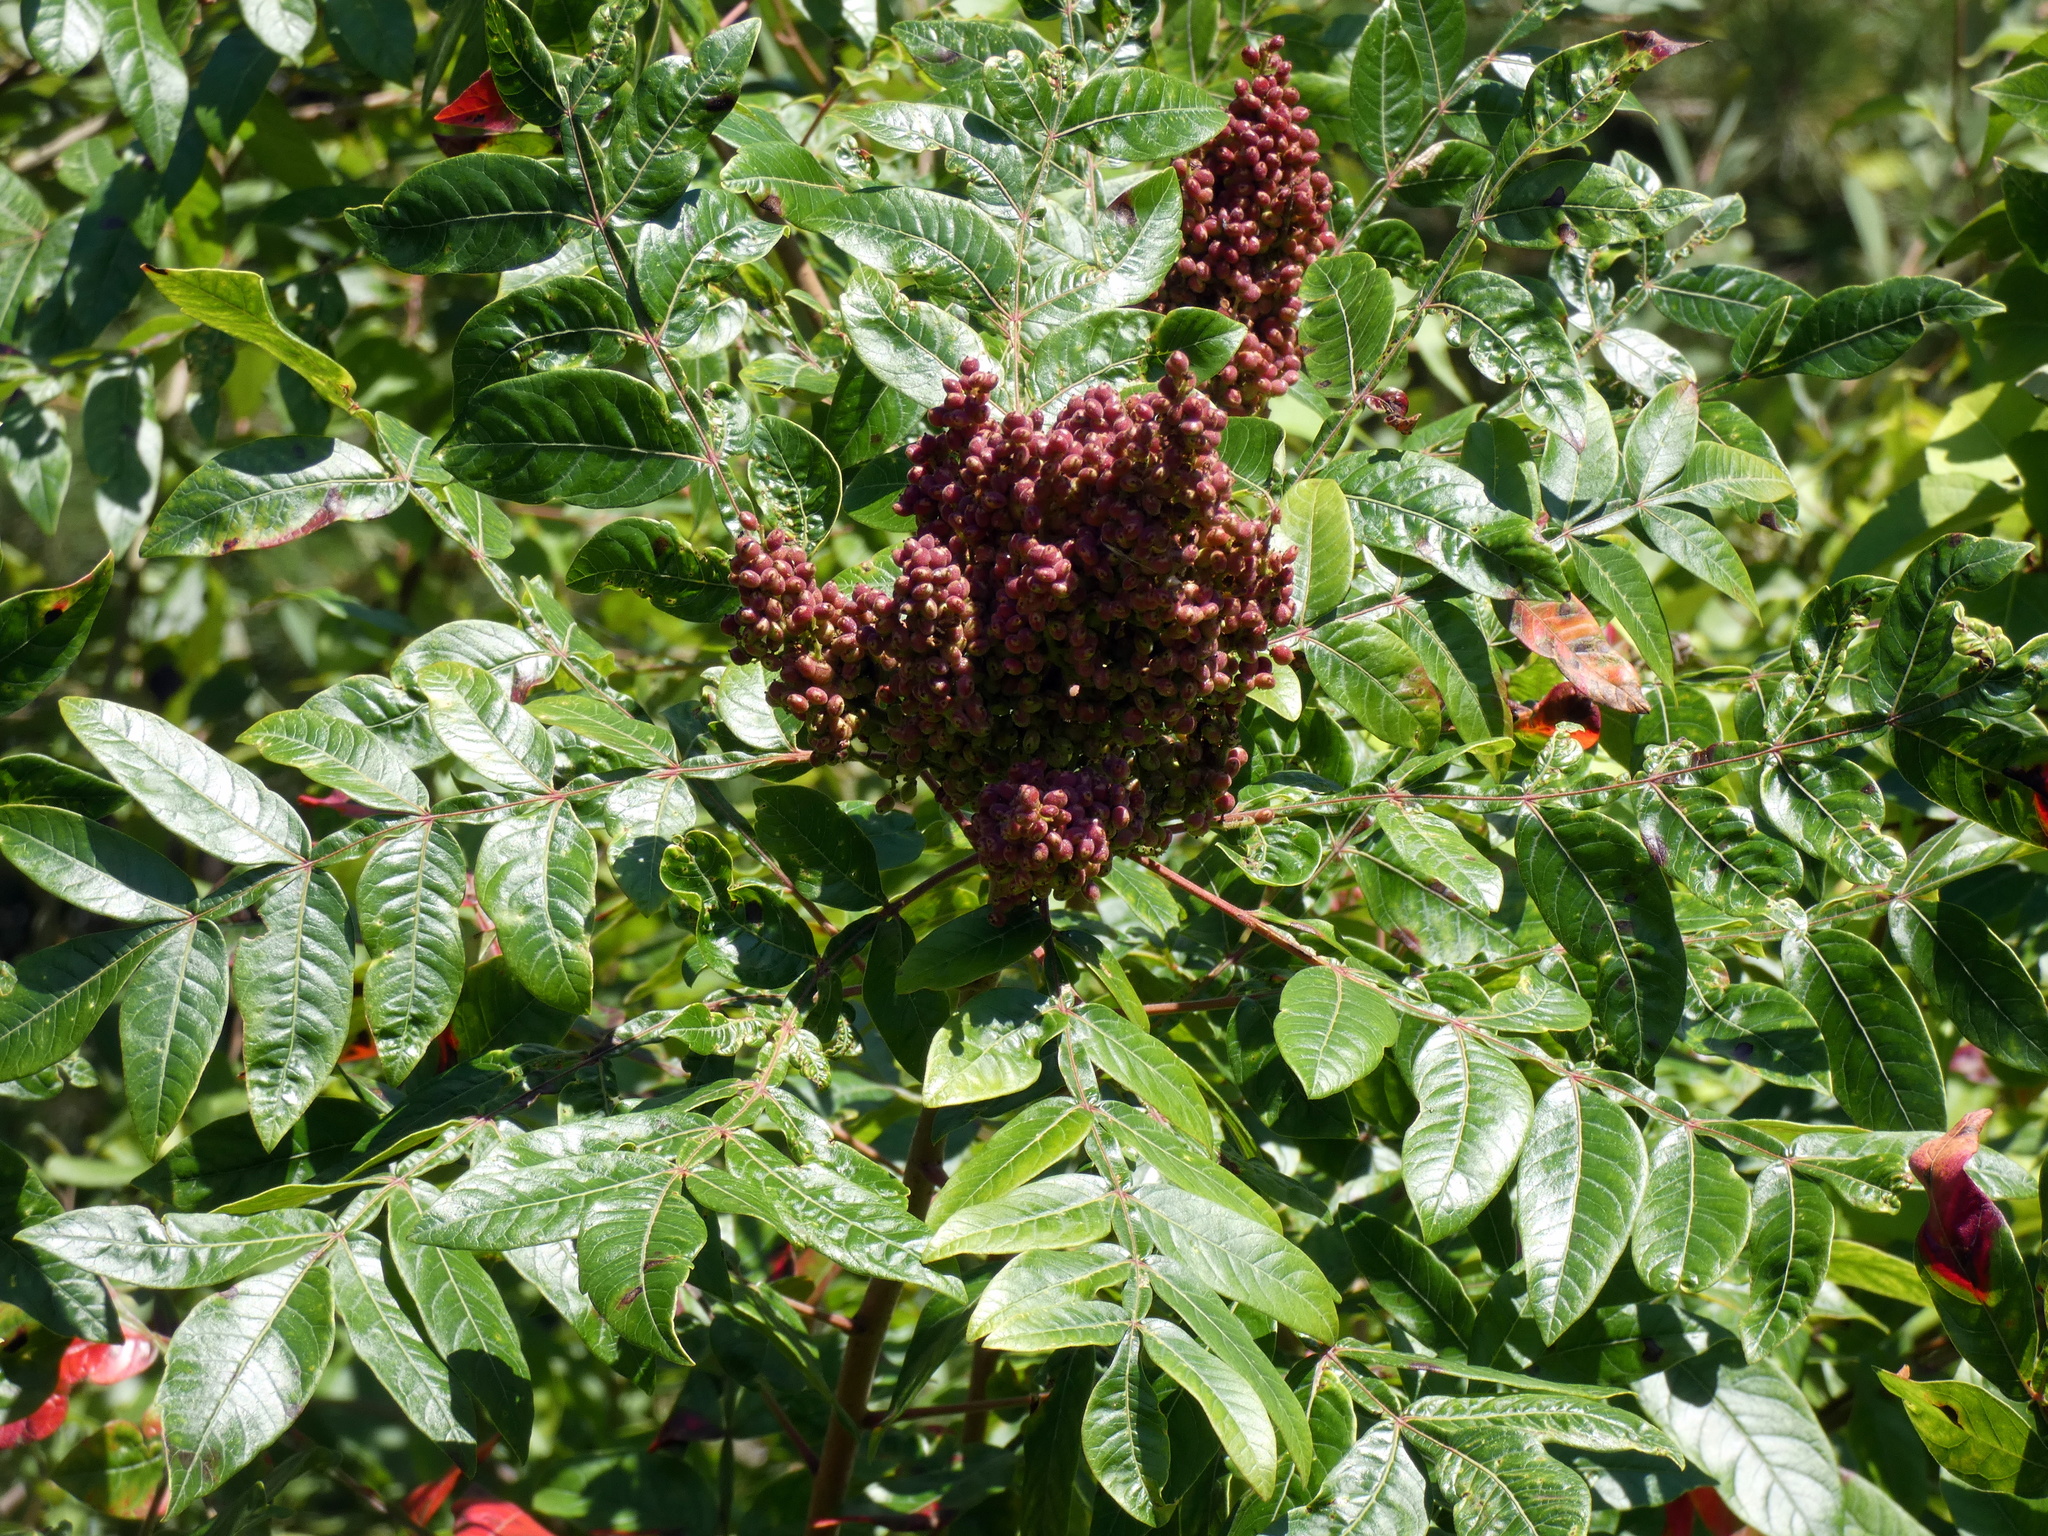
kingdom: Plantae
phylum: Tracheophyta
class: Magnoliopsida
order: Sapindales
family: Anacardiaceae
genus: Rhus
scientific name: Rhus copallina
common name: Shining sumac
